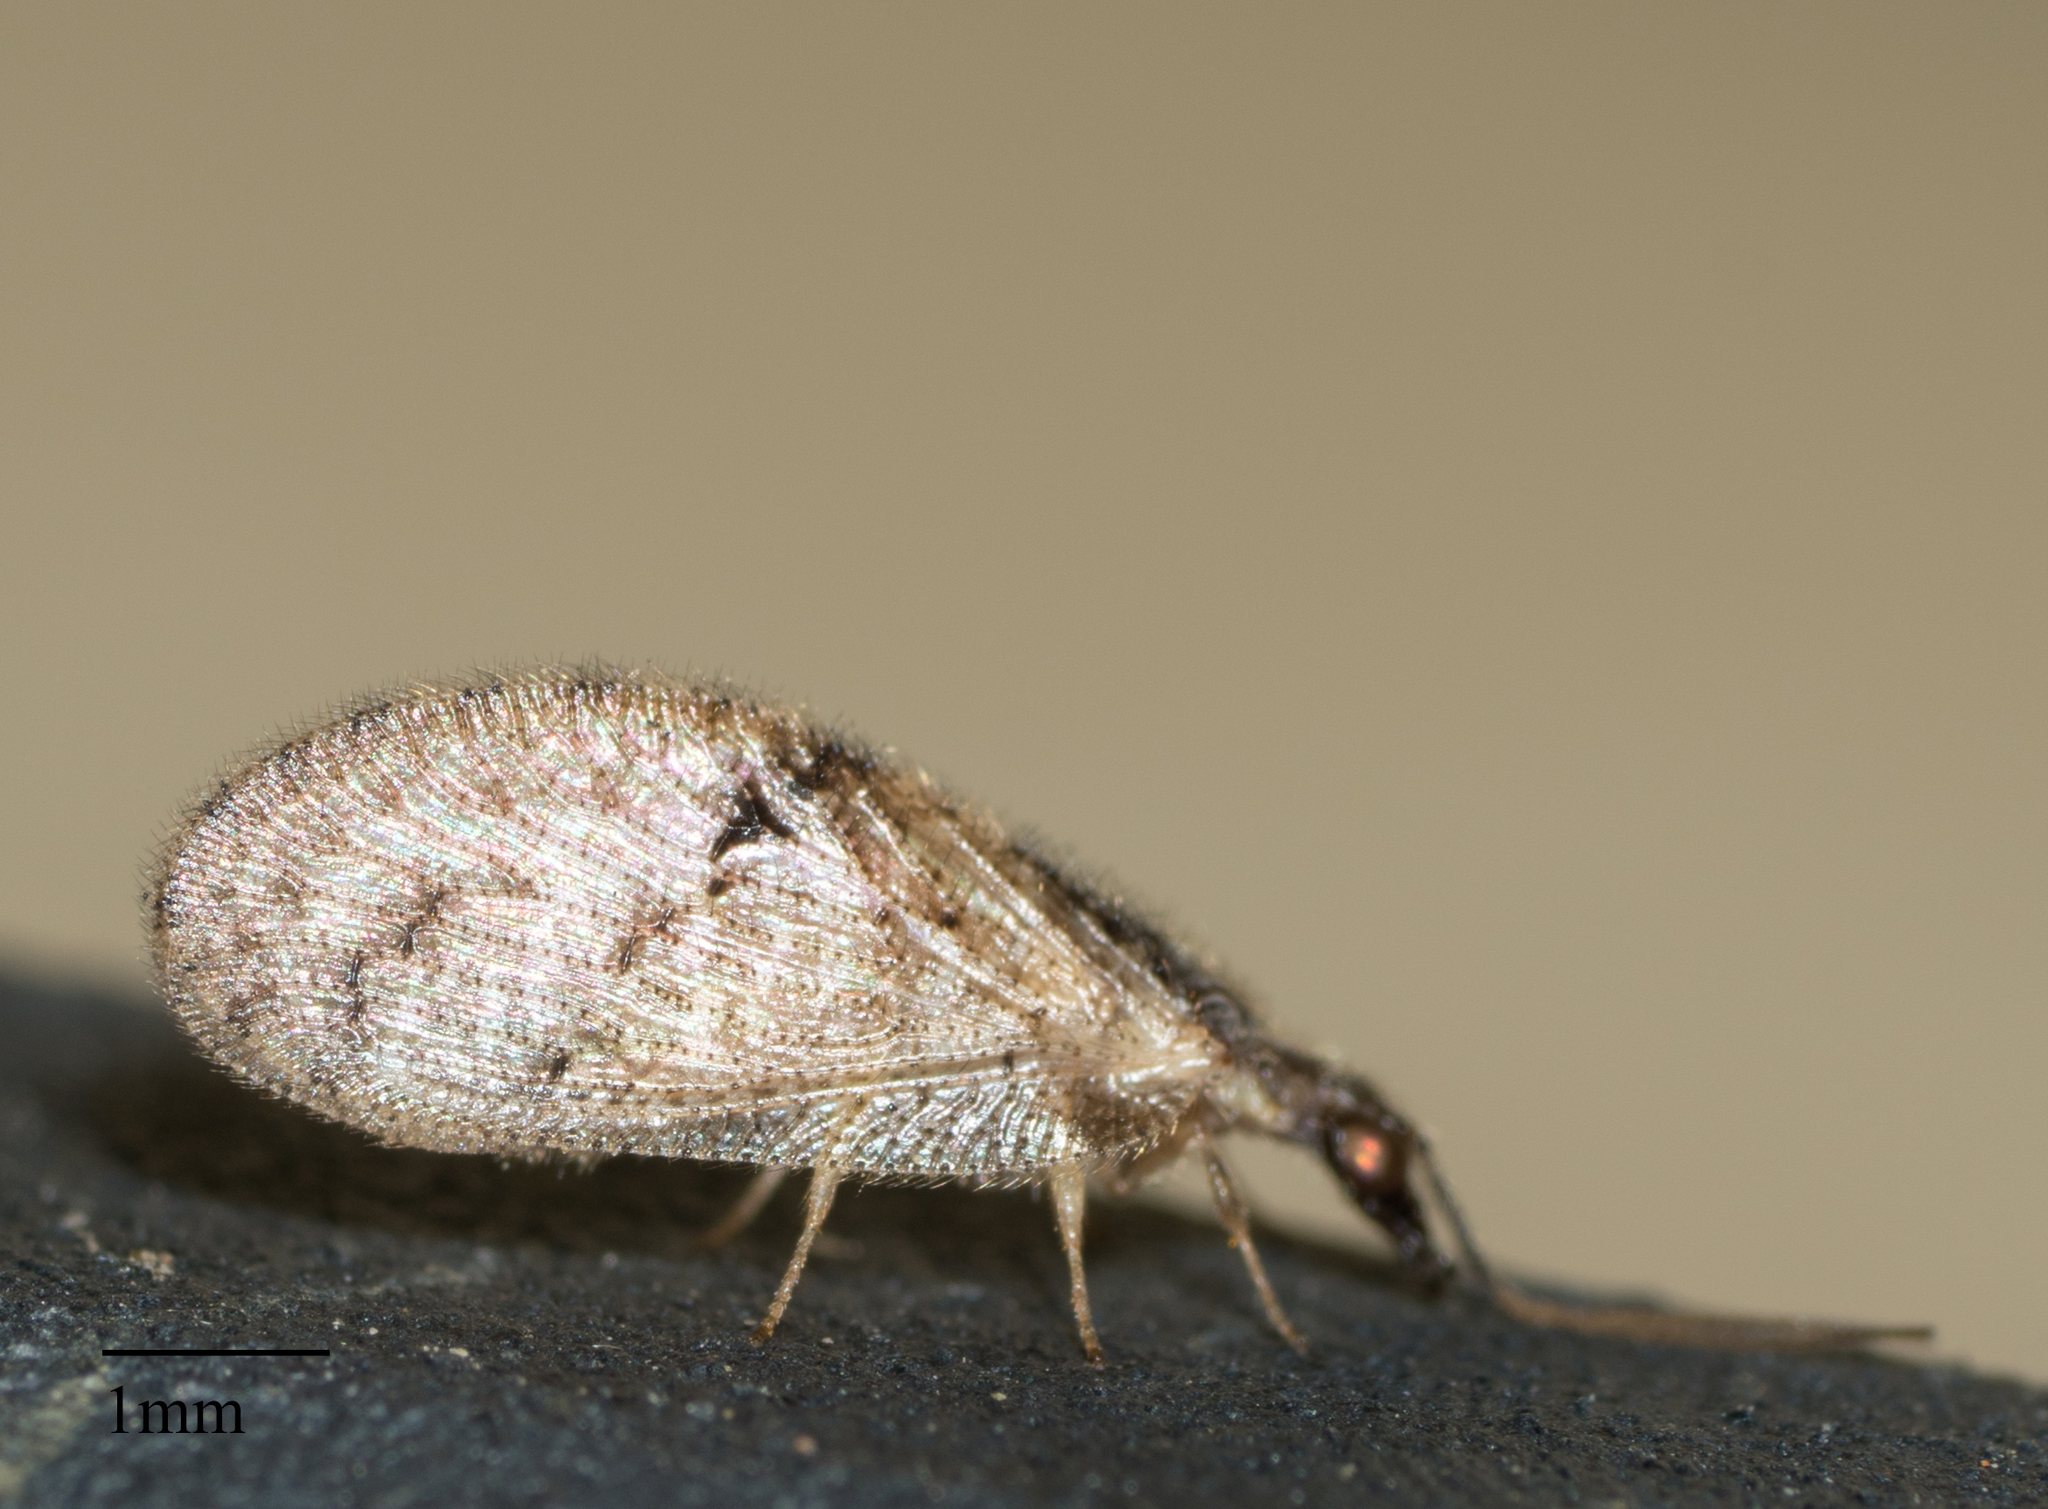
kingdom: Animalia
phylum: Arthropoda
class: Insecta
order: Neuroptera
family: Hemerobiidae
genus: Sympherobius
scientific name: Sympherobius barberi
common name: Brown lacewing
